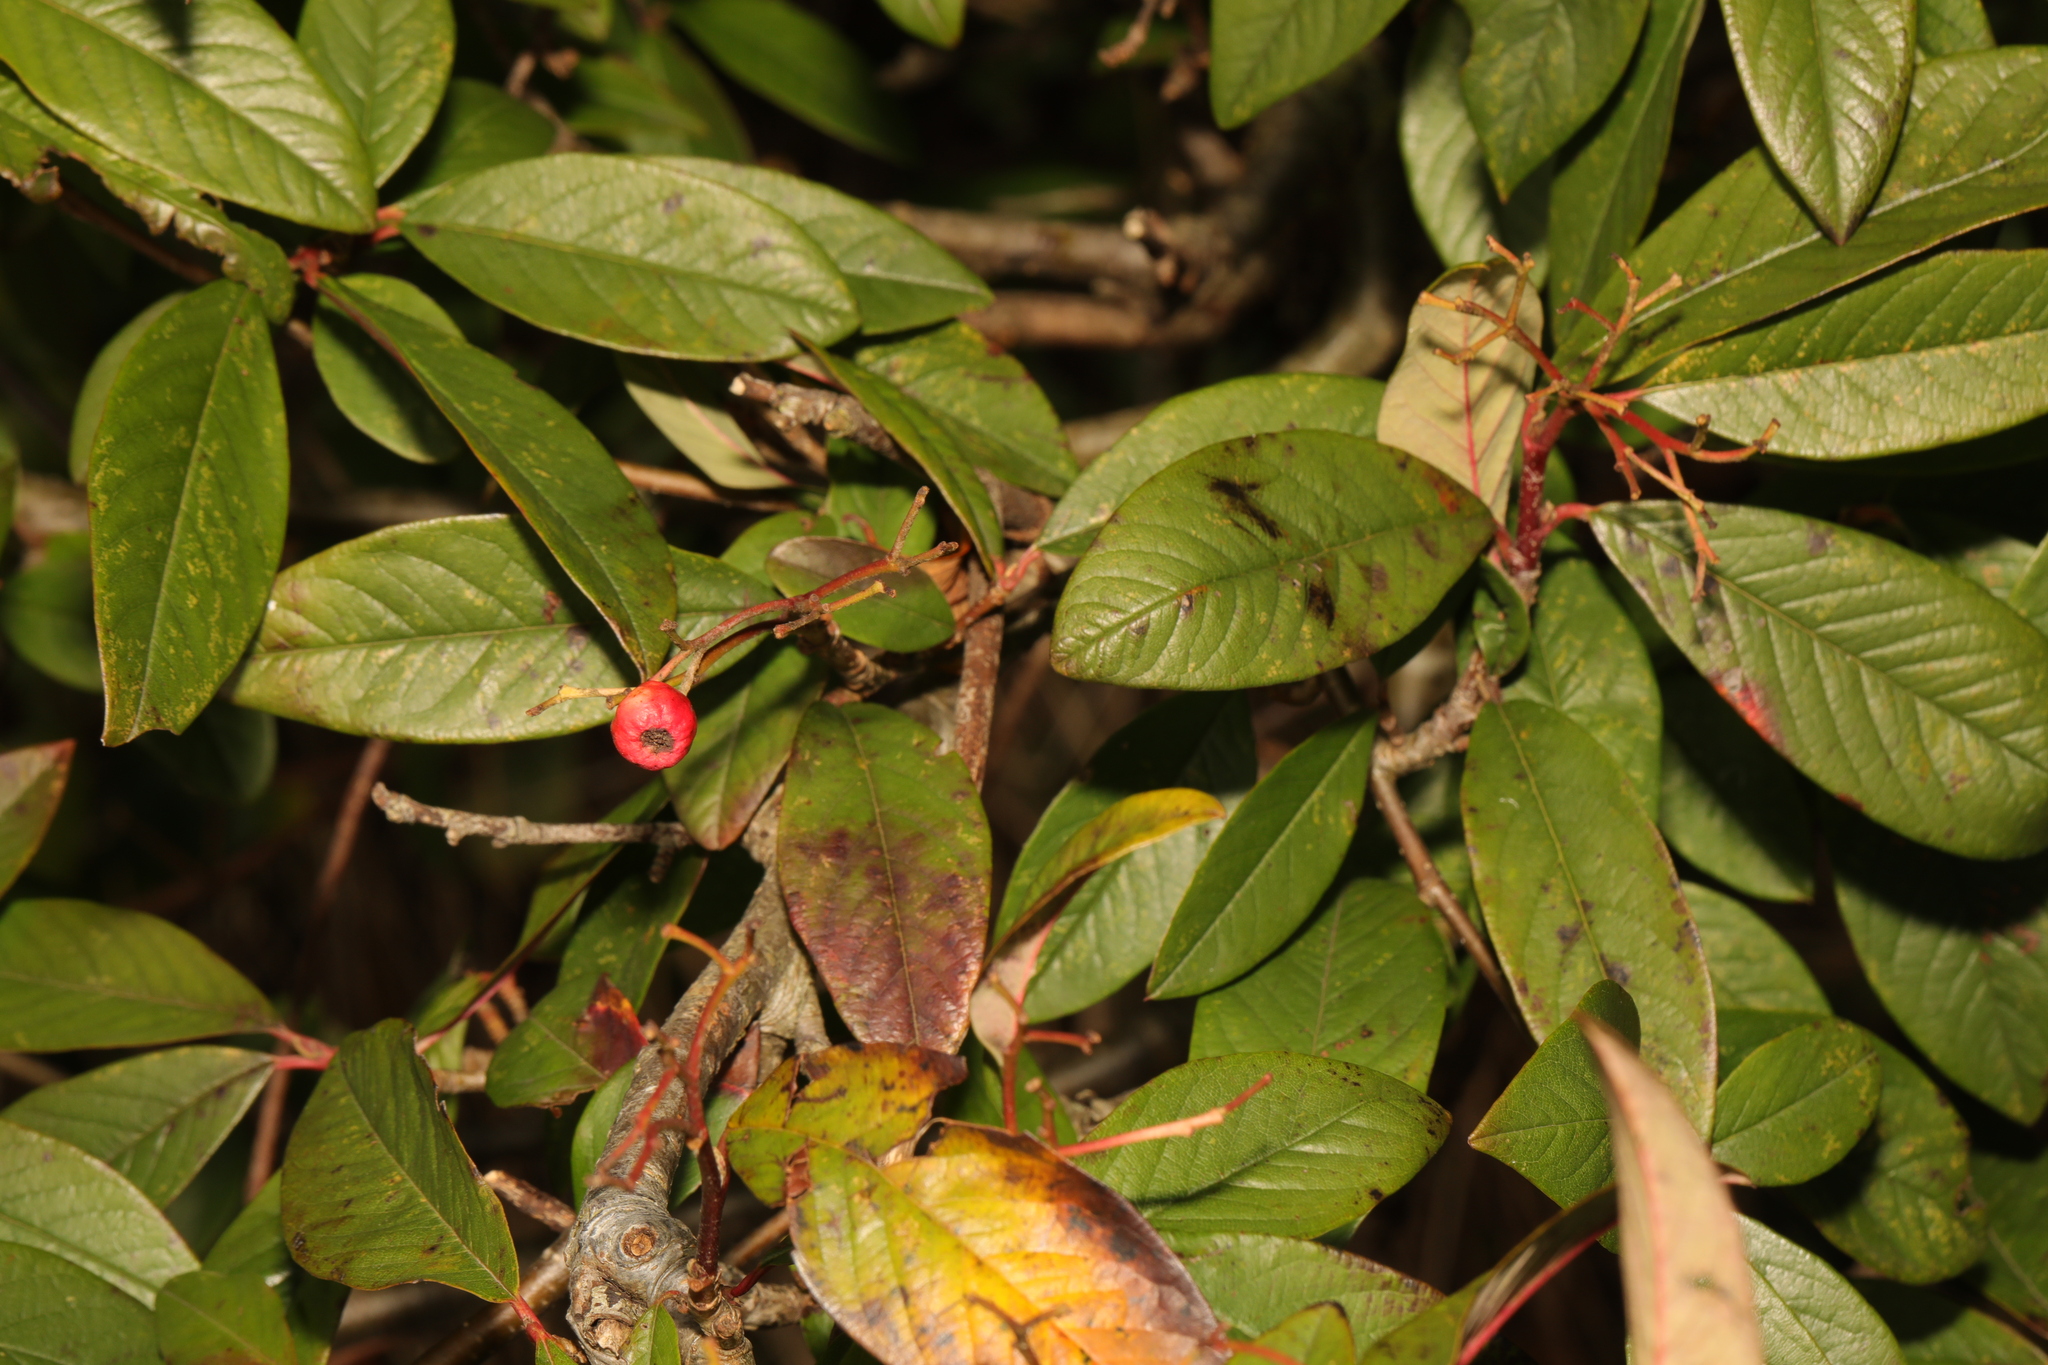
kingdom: Plantae
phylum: Tracheophyta
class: Magnoliopsida
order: Rosales
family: Rosaceae
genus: Cotoneaster
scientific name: Cotoneaster watereri
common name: Waterer's cotoneaster
